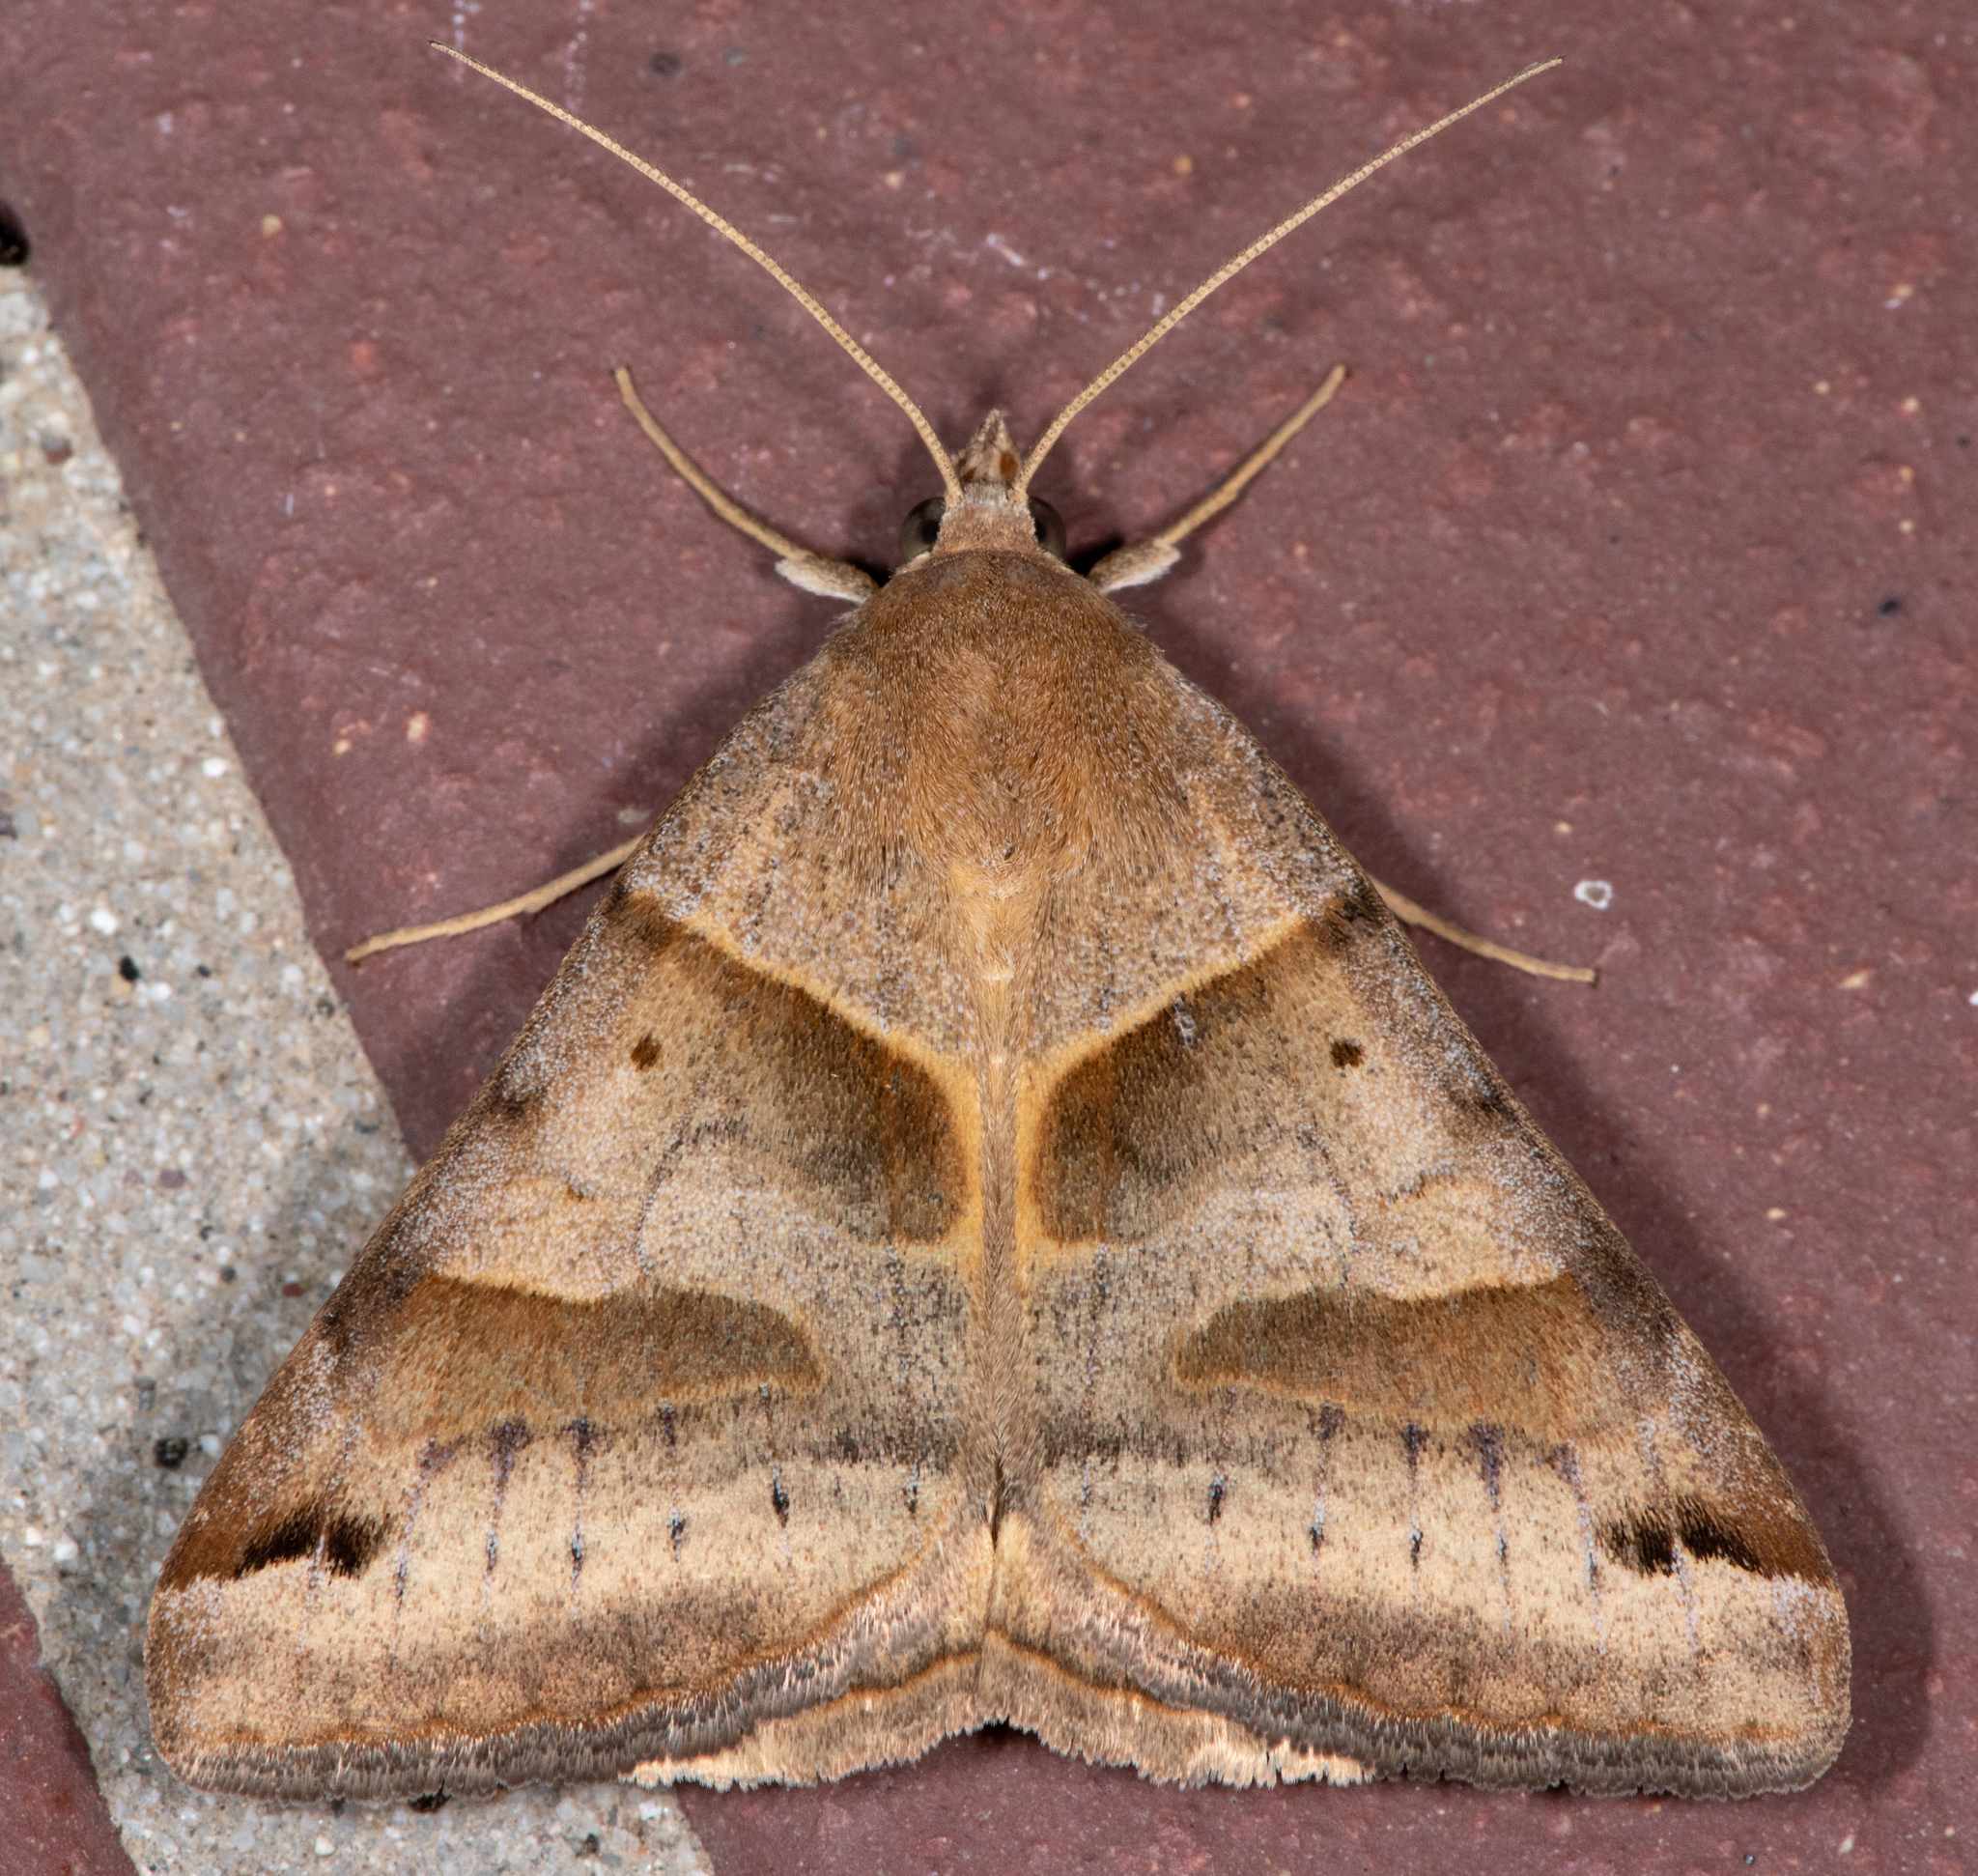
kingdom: Animalia
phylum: Arthropoda
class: Insecta
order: Lepidoptera
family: Erebidae
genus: Caenurgina
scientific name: Caenurgina erechtea
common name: Forage looper moth
